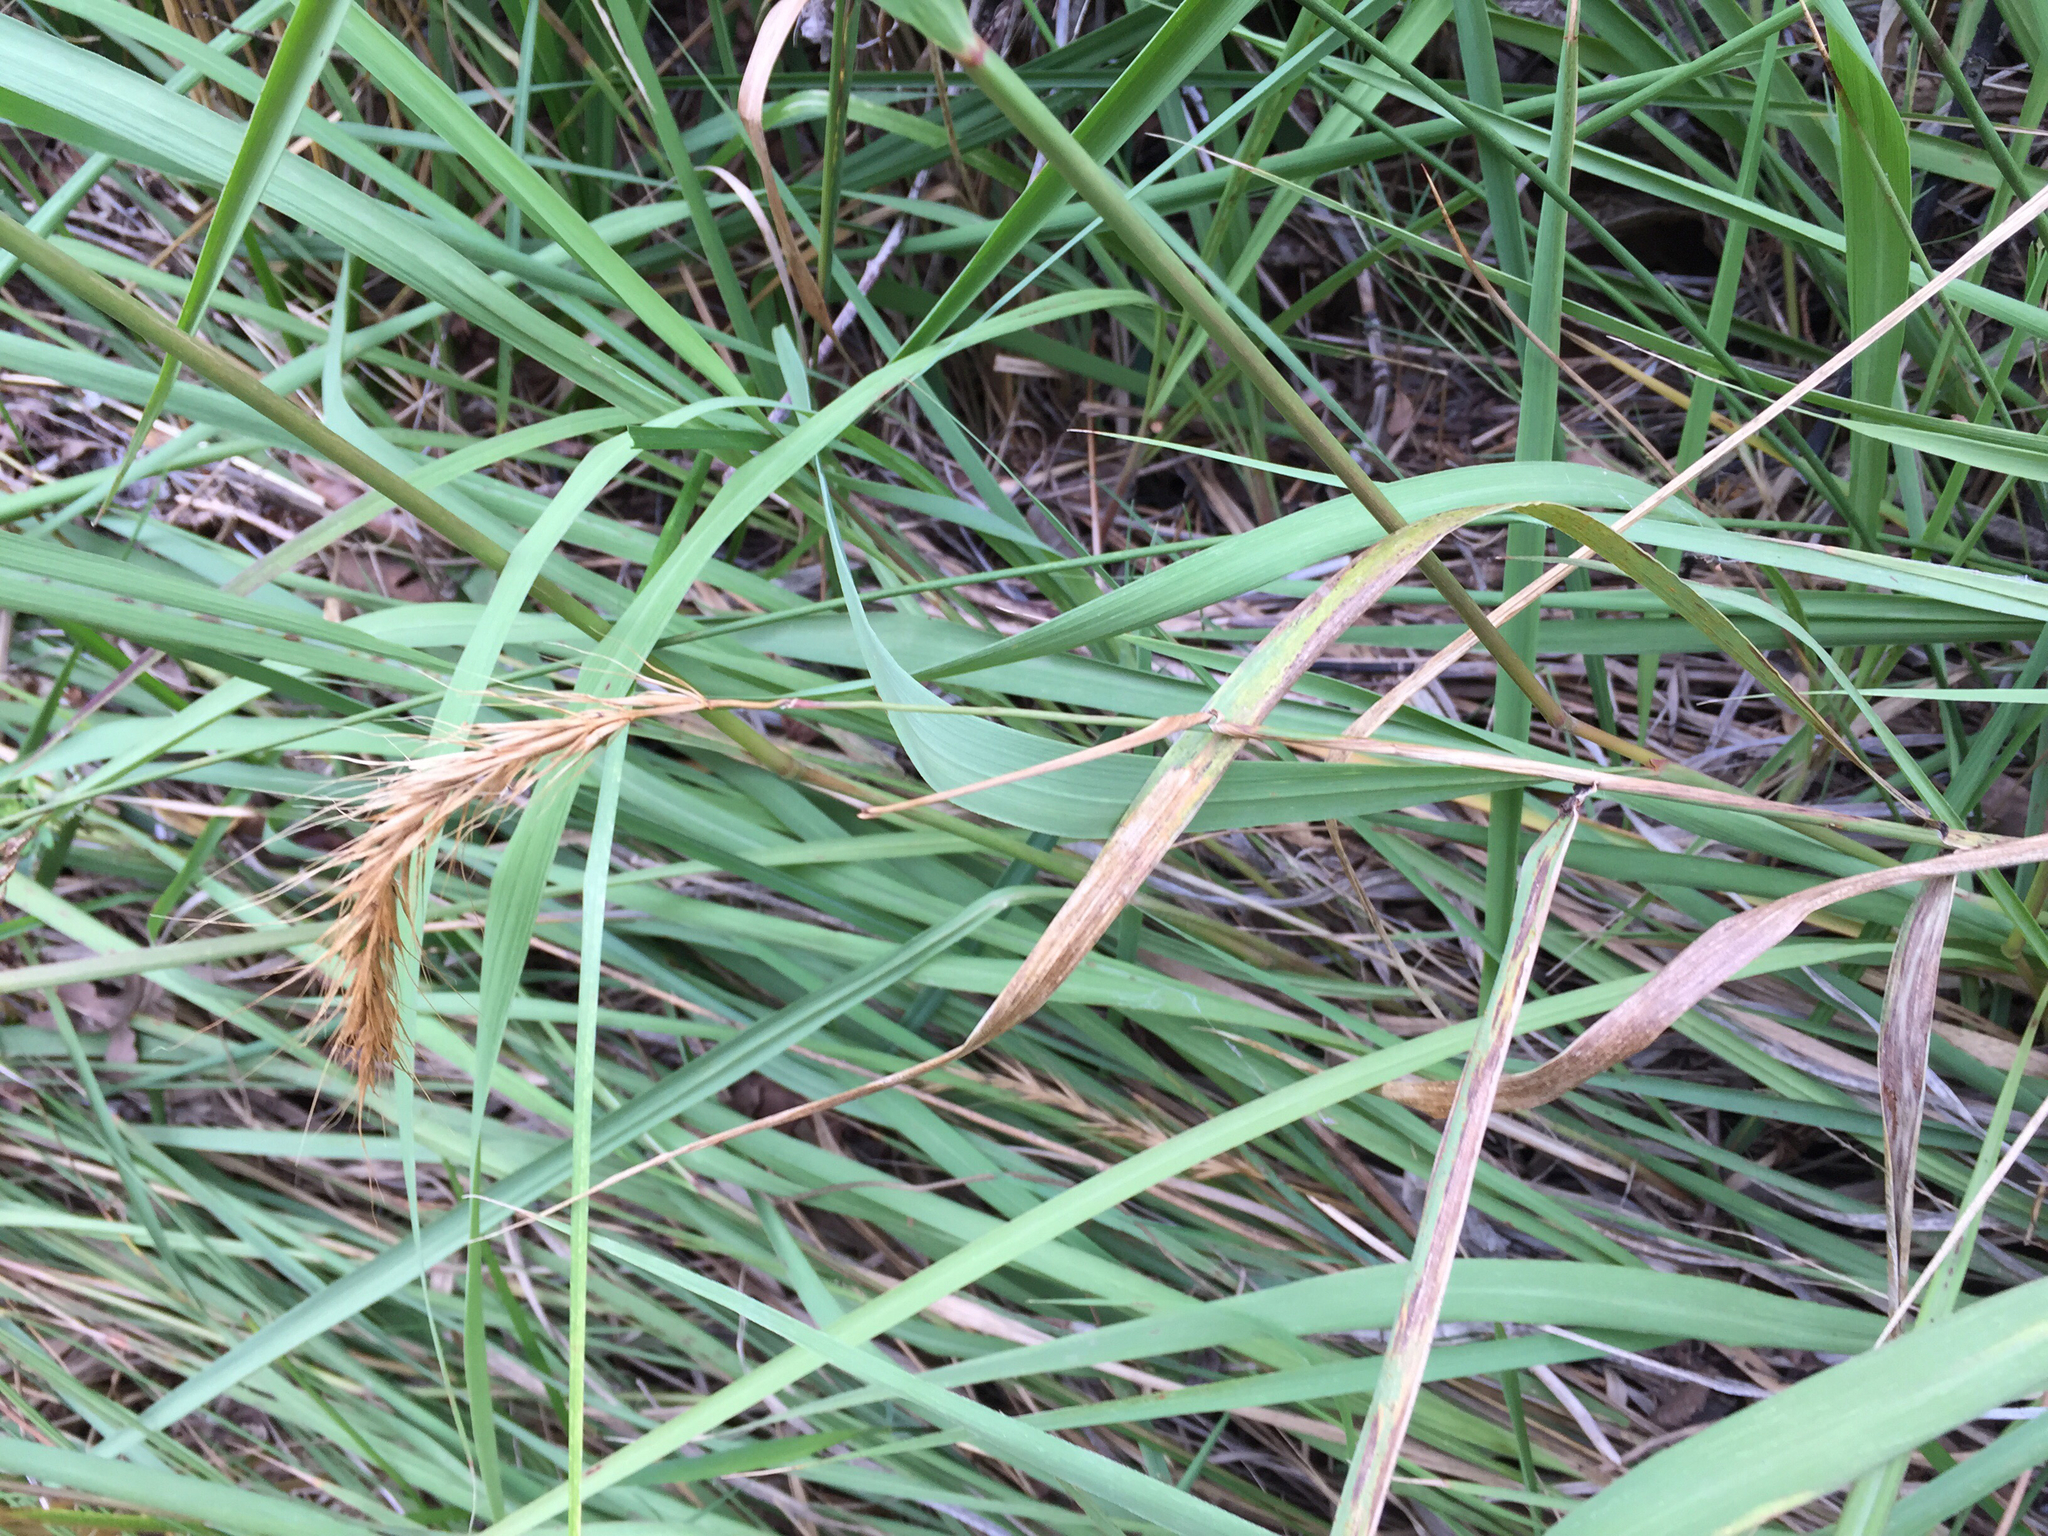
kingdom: Plantae
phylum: Tracheophyta
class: Liliopsida
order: Poales
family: Poaceae
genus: Elymus
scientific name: Elymus canadensis
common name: Canada wild rye
